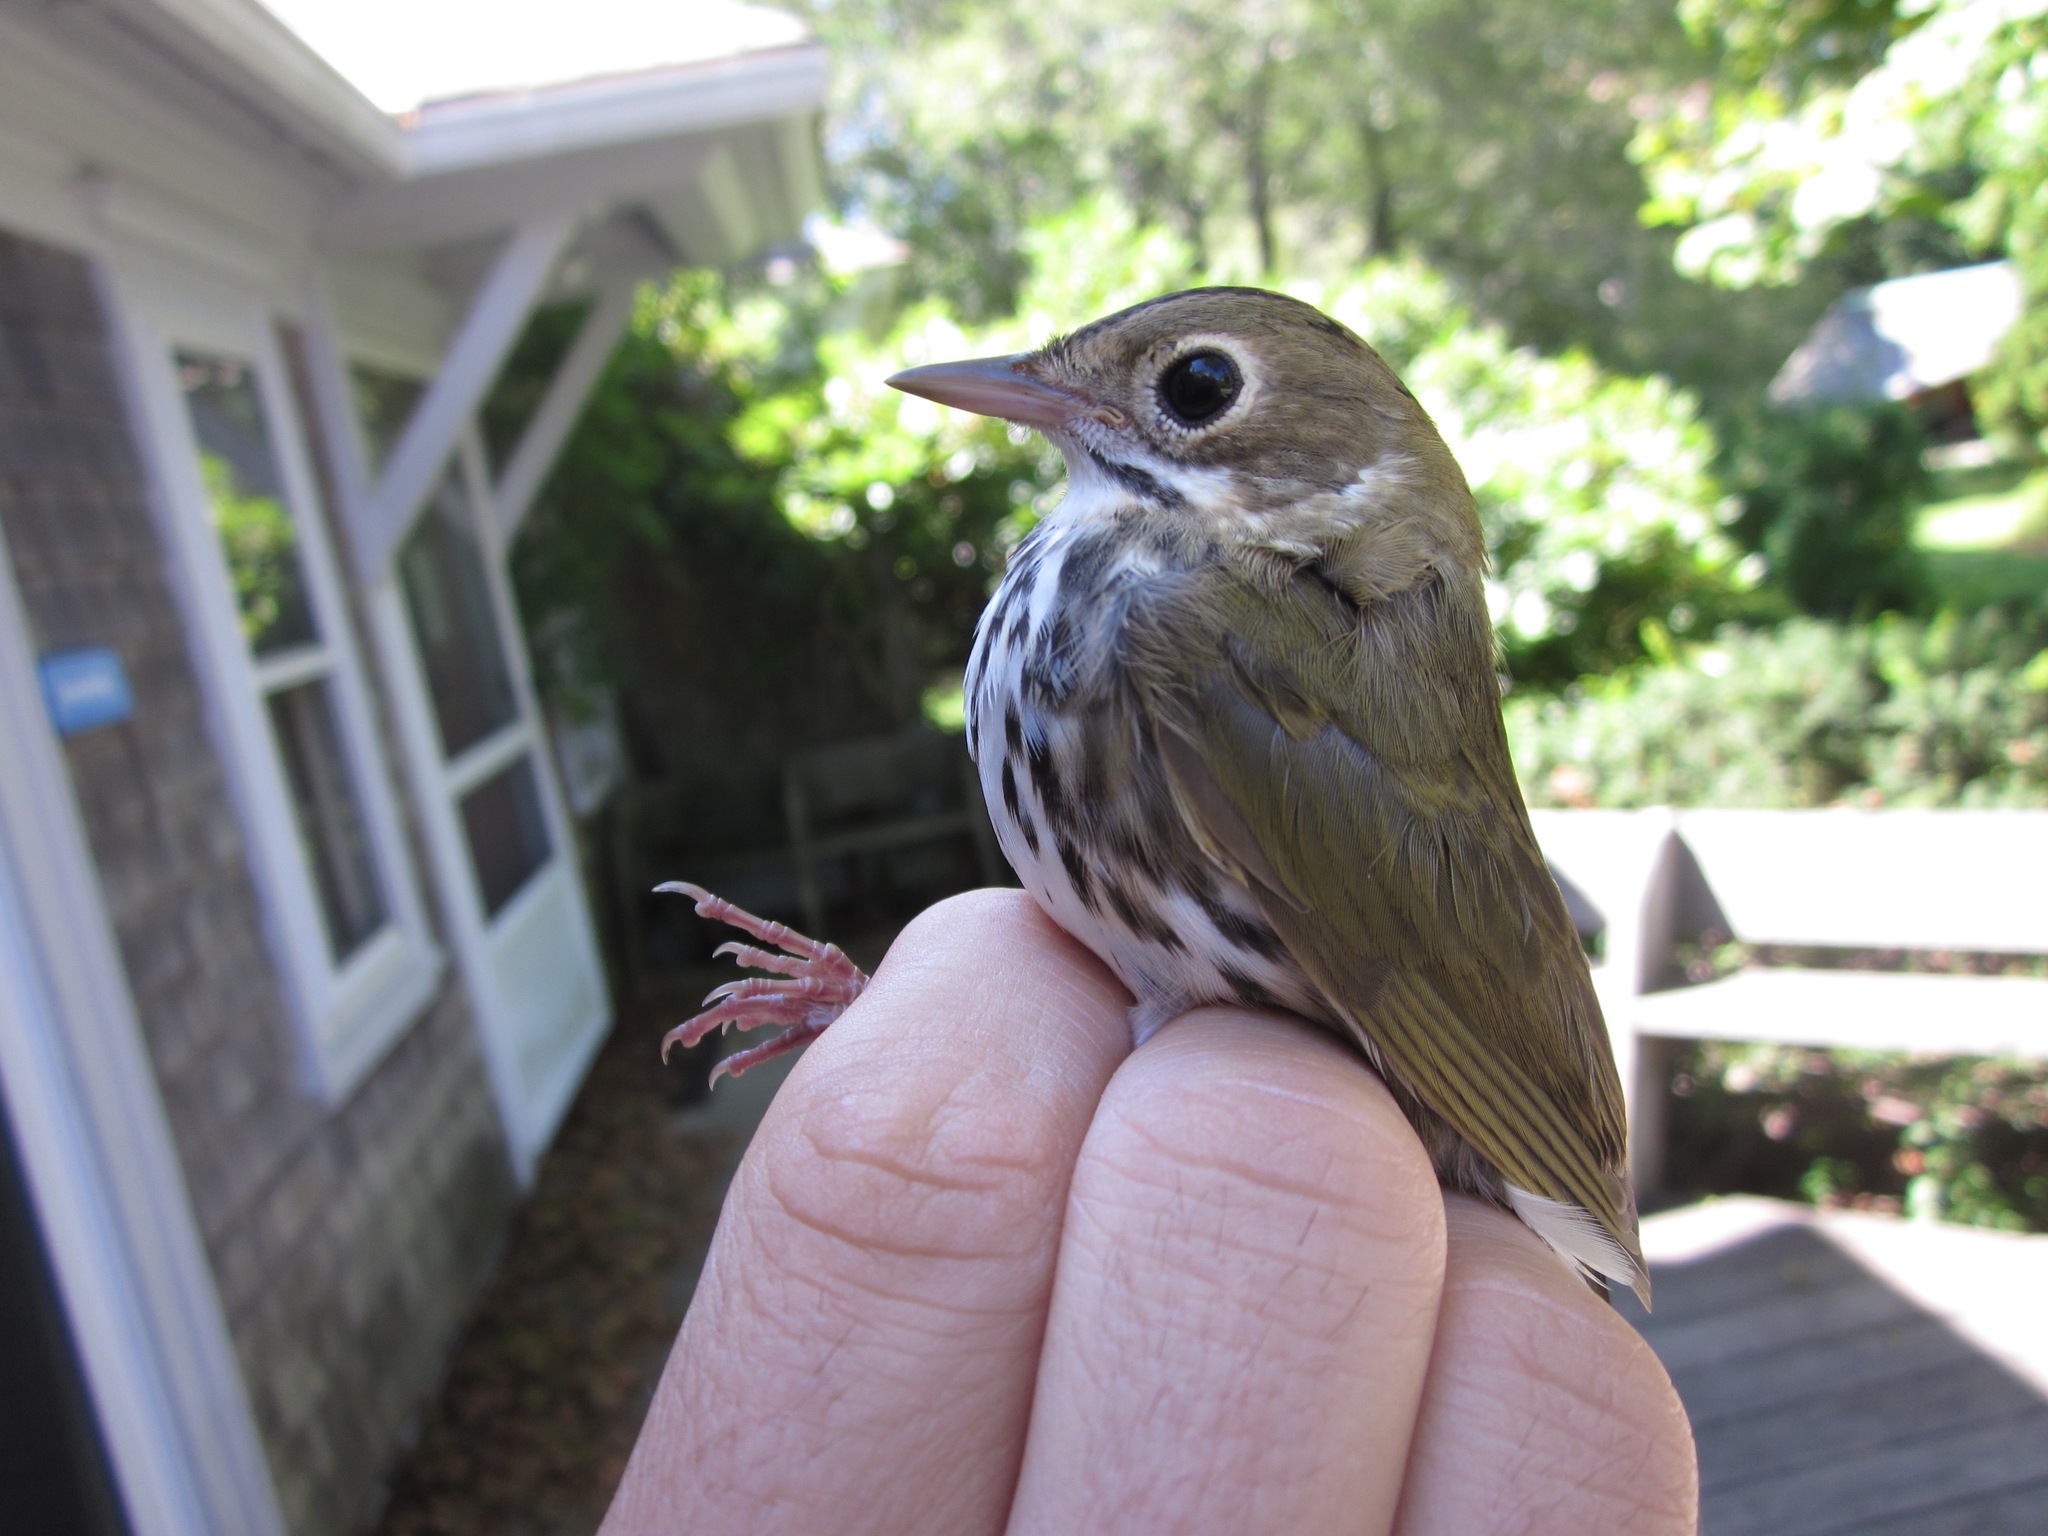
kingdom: Animalia
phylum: Chordata
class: Aves
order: Passeriformes
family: Parulidae
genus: Seiurus
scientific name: Seiurus aurocapilla
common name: Ovenbird
